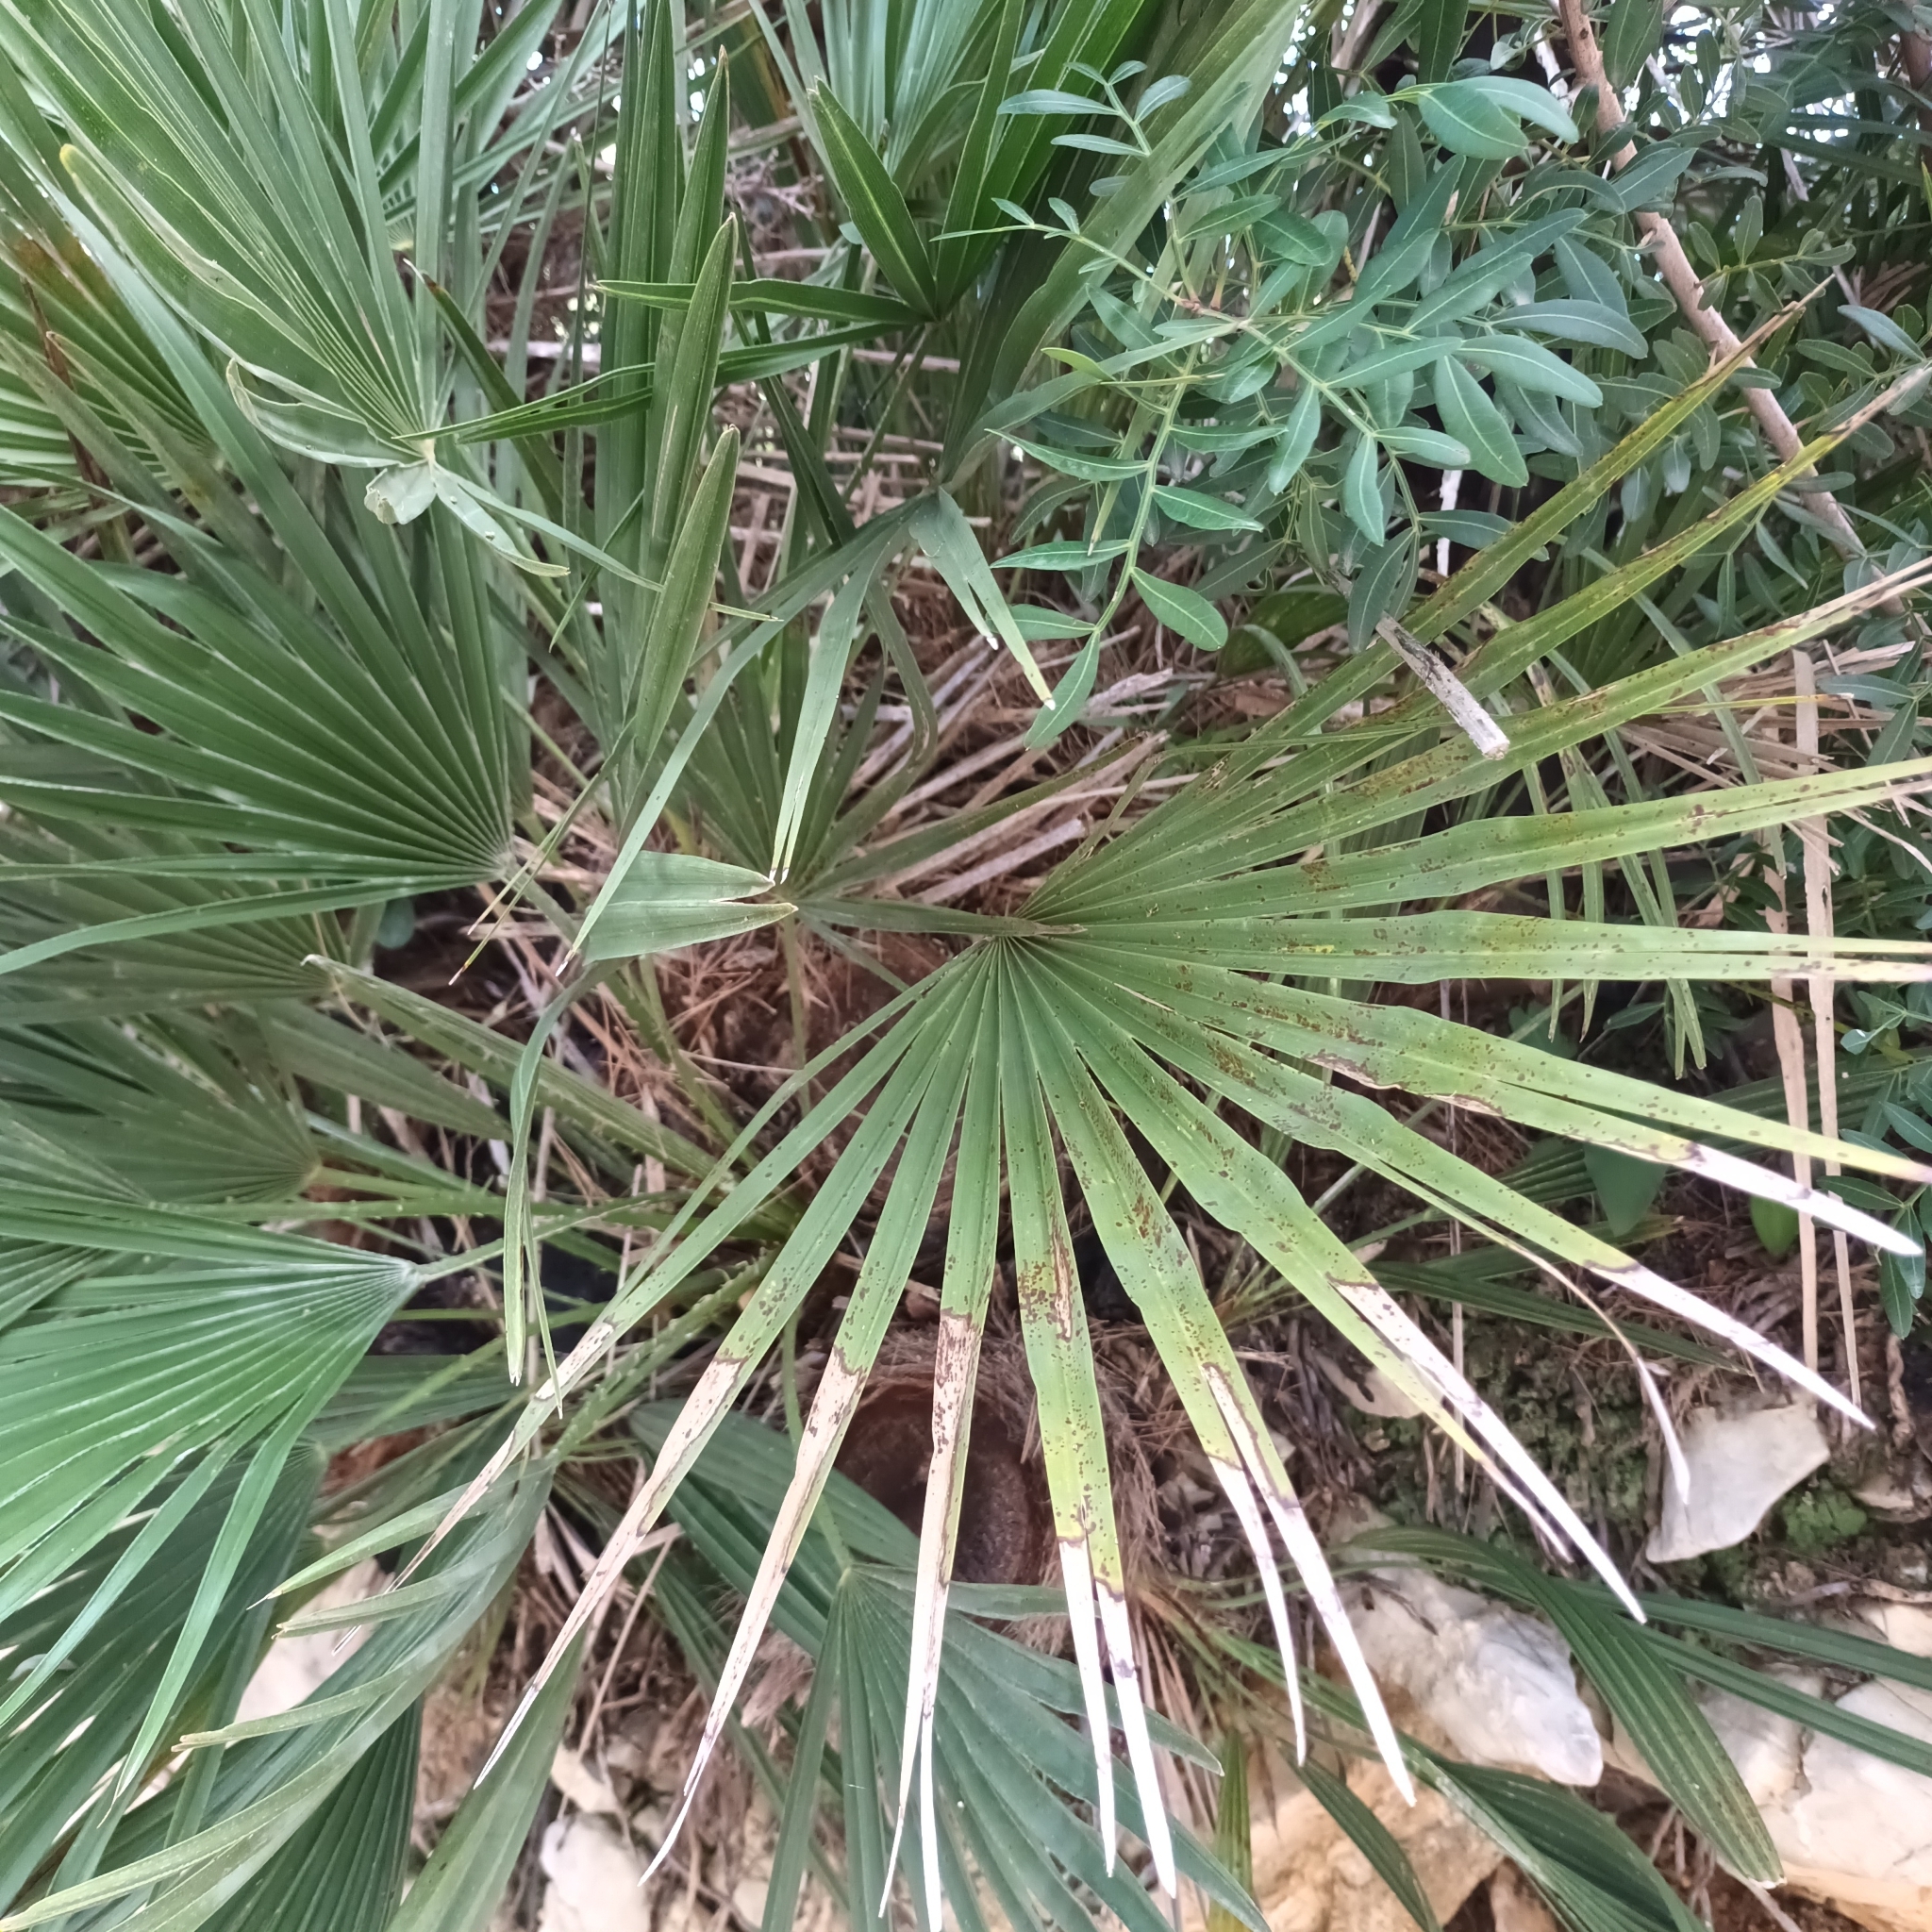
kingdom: Plantae
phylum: Tracheophyta
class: Liliopsida
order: Arecales
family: Arecaceae
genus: Chamaerops
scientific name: Chamaerops humilis
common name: Dwarf fan palm
